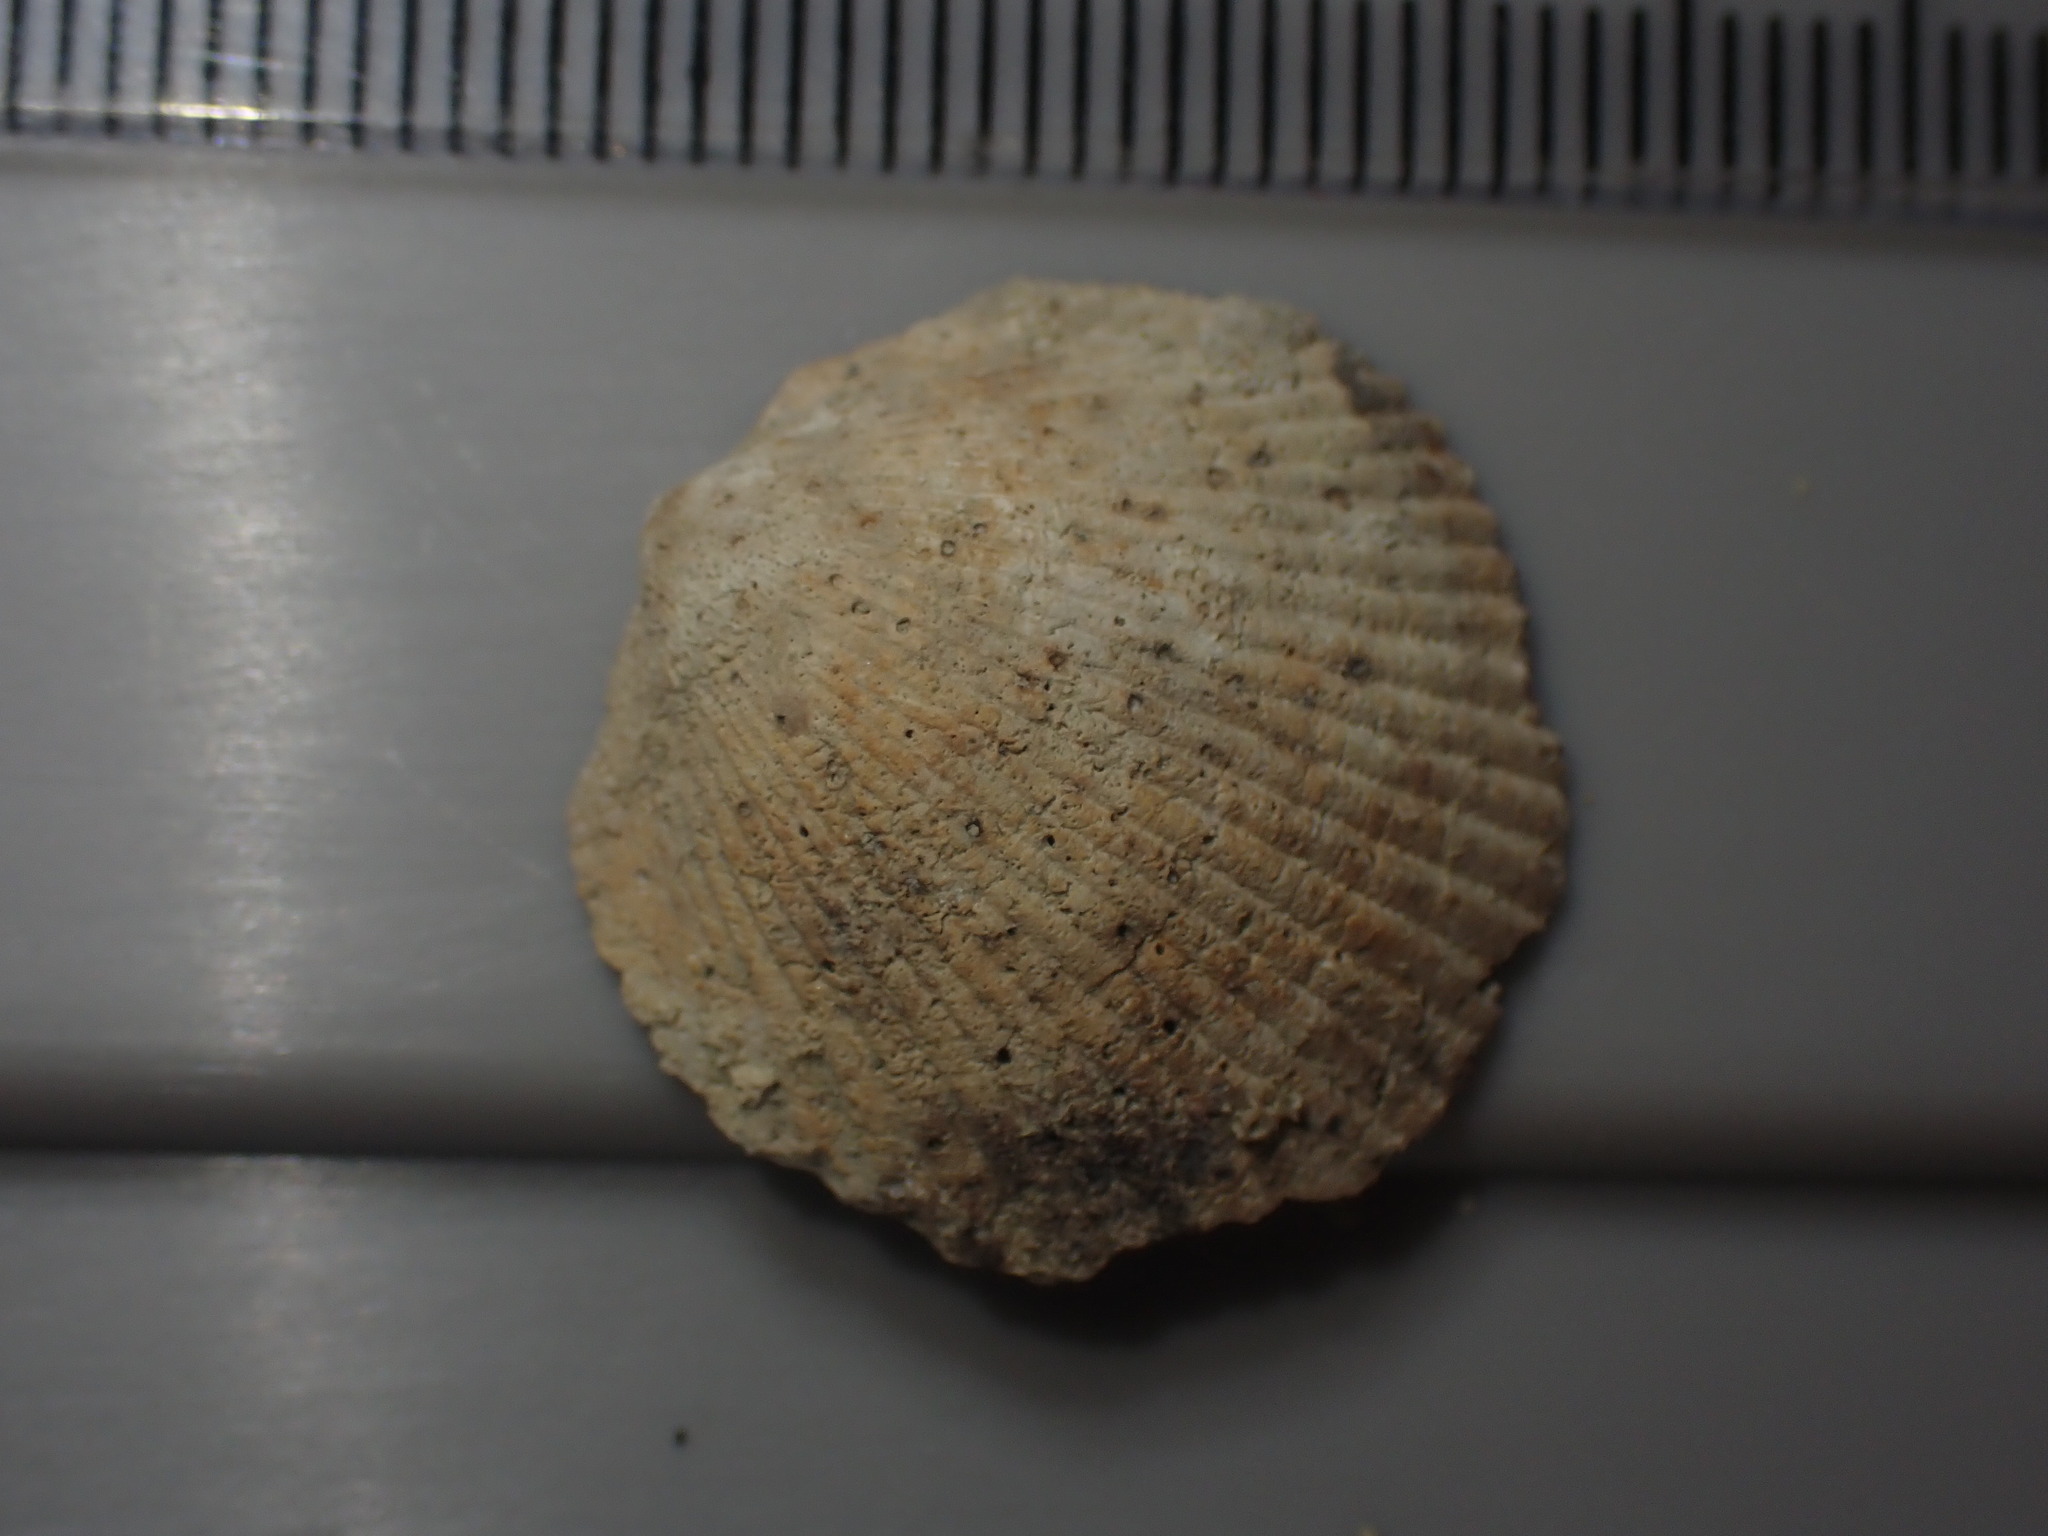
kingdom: Animalia
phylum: Mollusca
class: Bivalvia
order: Arcida
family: Glycymerididae
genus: Tucetona
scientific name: Tucetona laticostata
